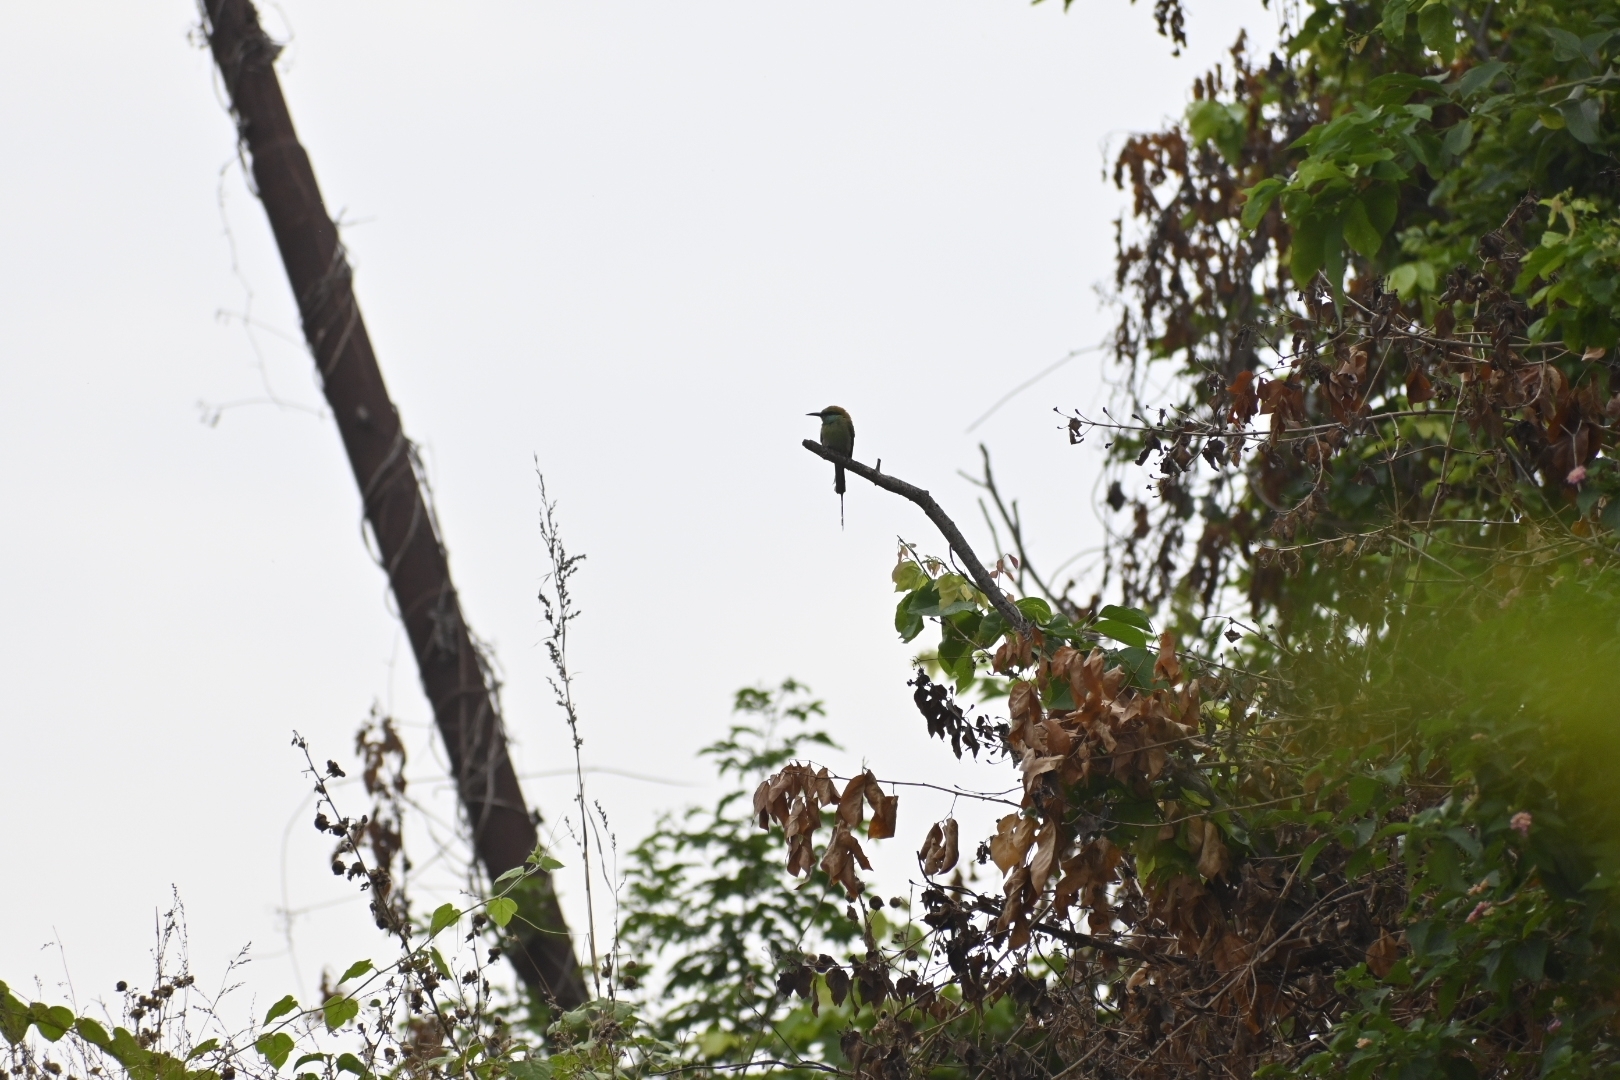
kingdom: Animalia
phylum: Chordata
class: Aves
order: Coraciiformes
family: Meropidae
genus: Merops
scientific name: Merops orientalis
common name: Green bee-eater
